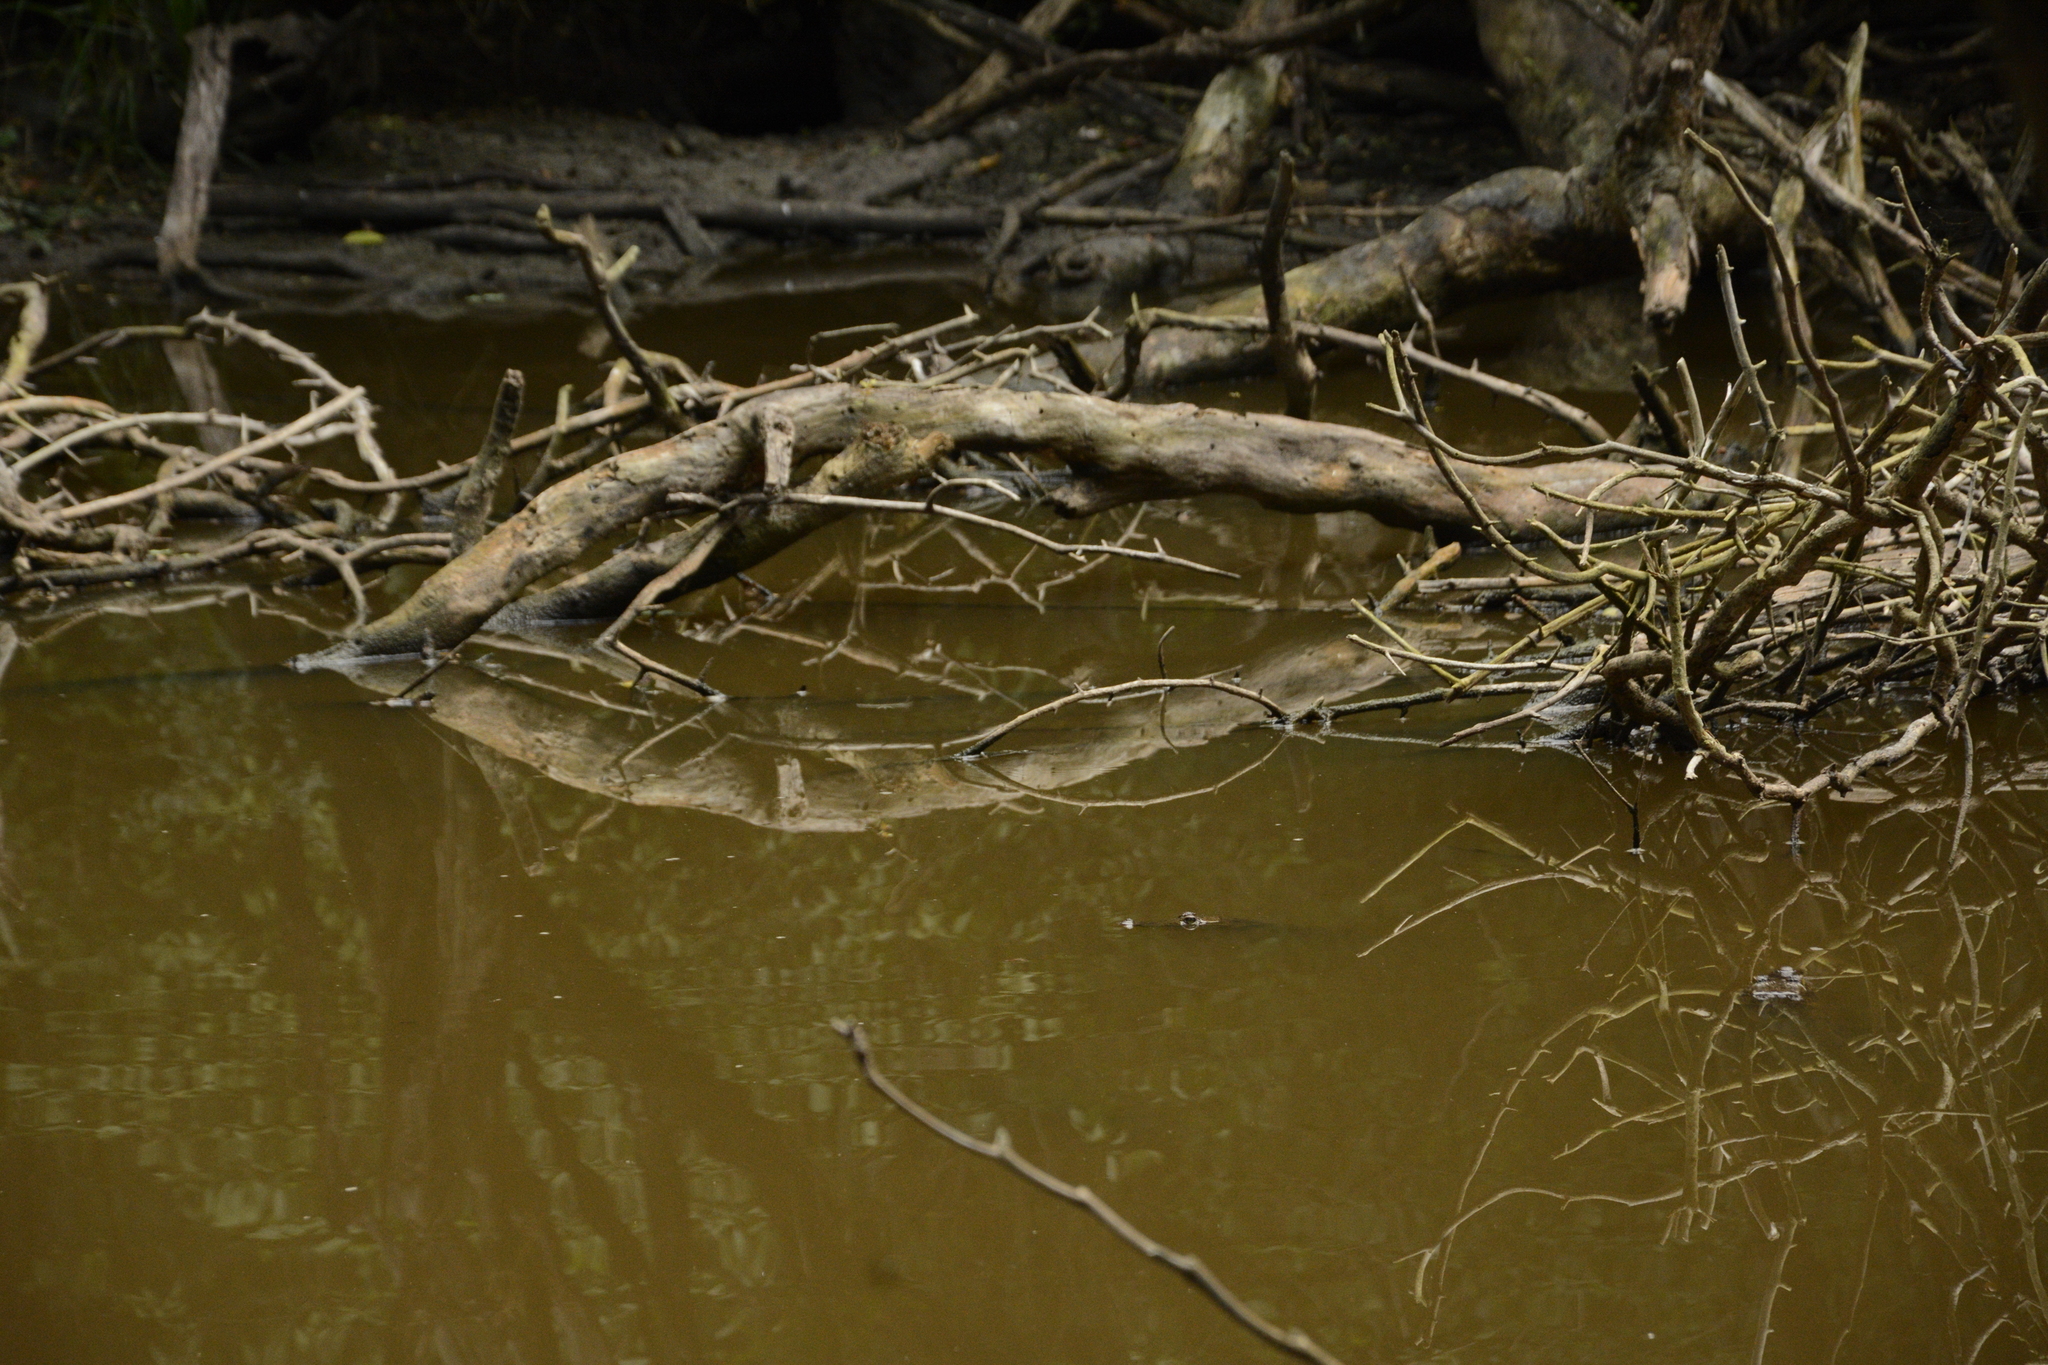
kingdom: Animalia
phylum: Chordata
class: Crocodylia
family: Crocodylidae
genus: Crocodylus
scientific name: Crocodylus moreletii
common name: Morelet's crocodile
